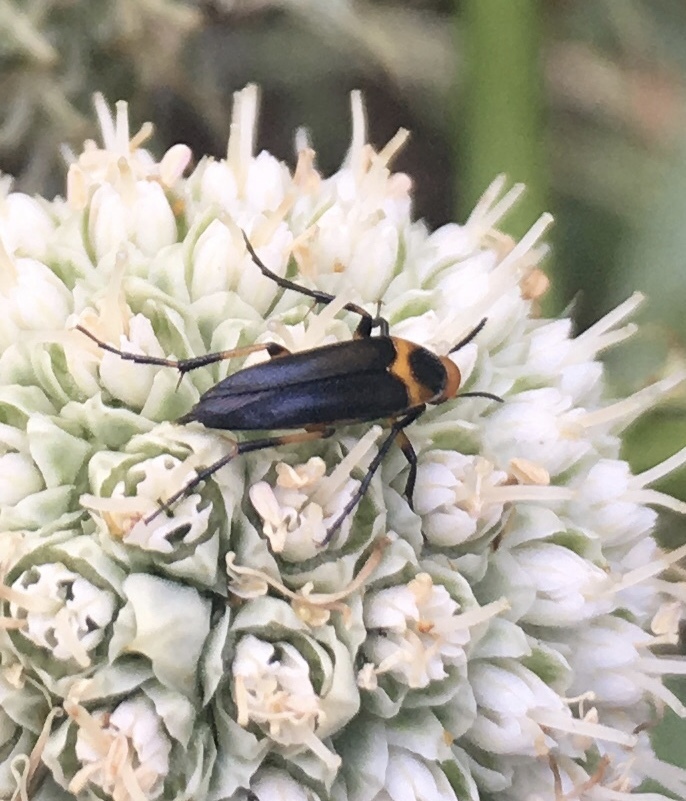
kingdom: Animalia
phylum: Arthropoda
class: Insecta
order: Coleoptera
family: Ripiphoridae
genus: Macrosiagon
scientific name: Macrosiagon limbatum
